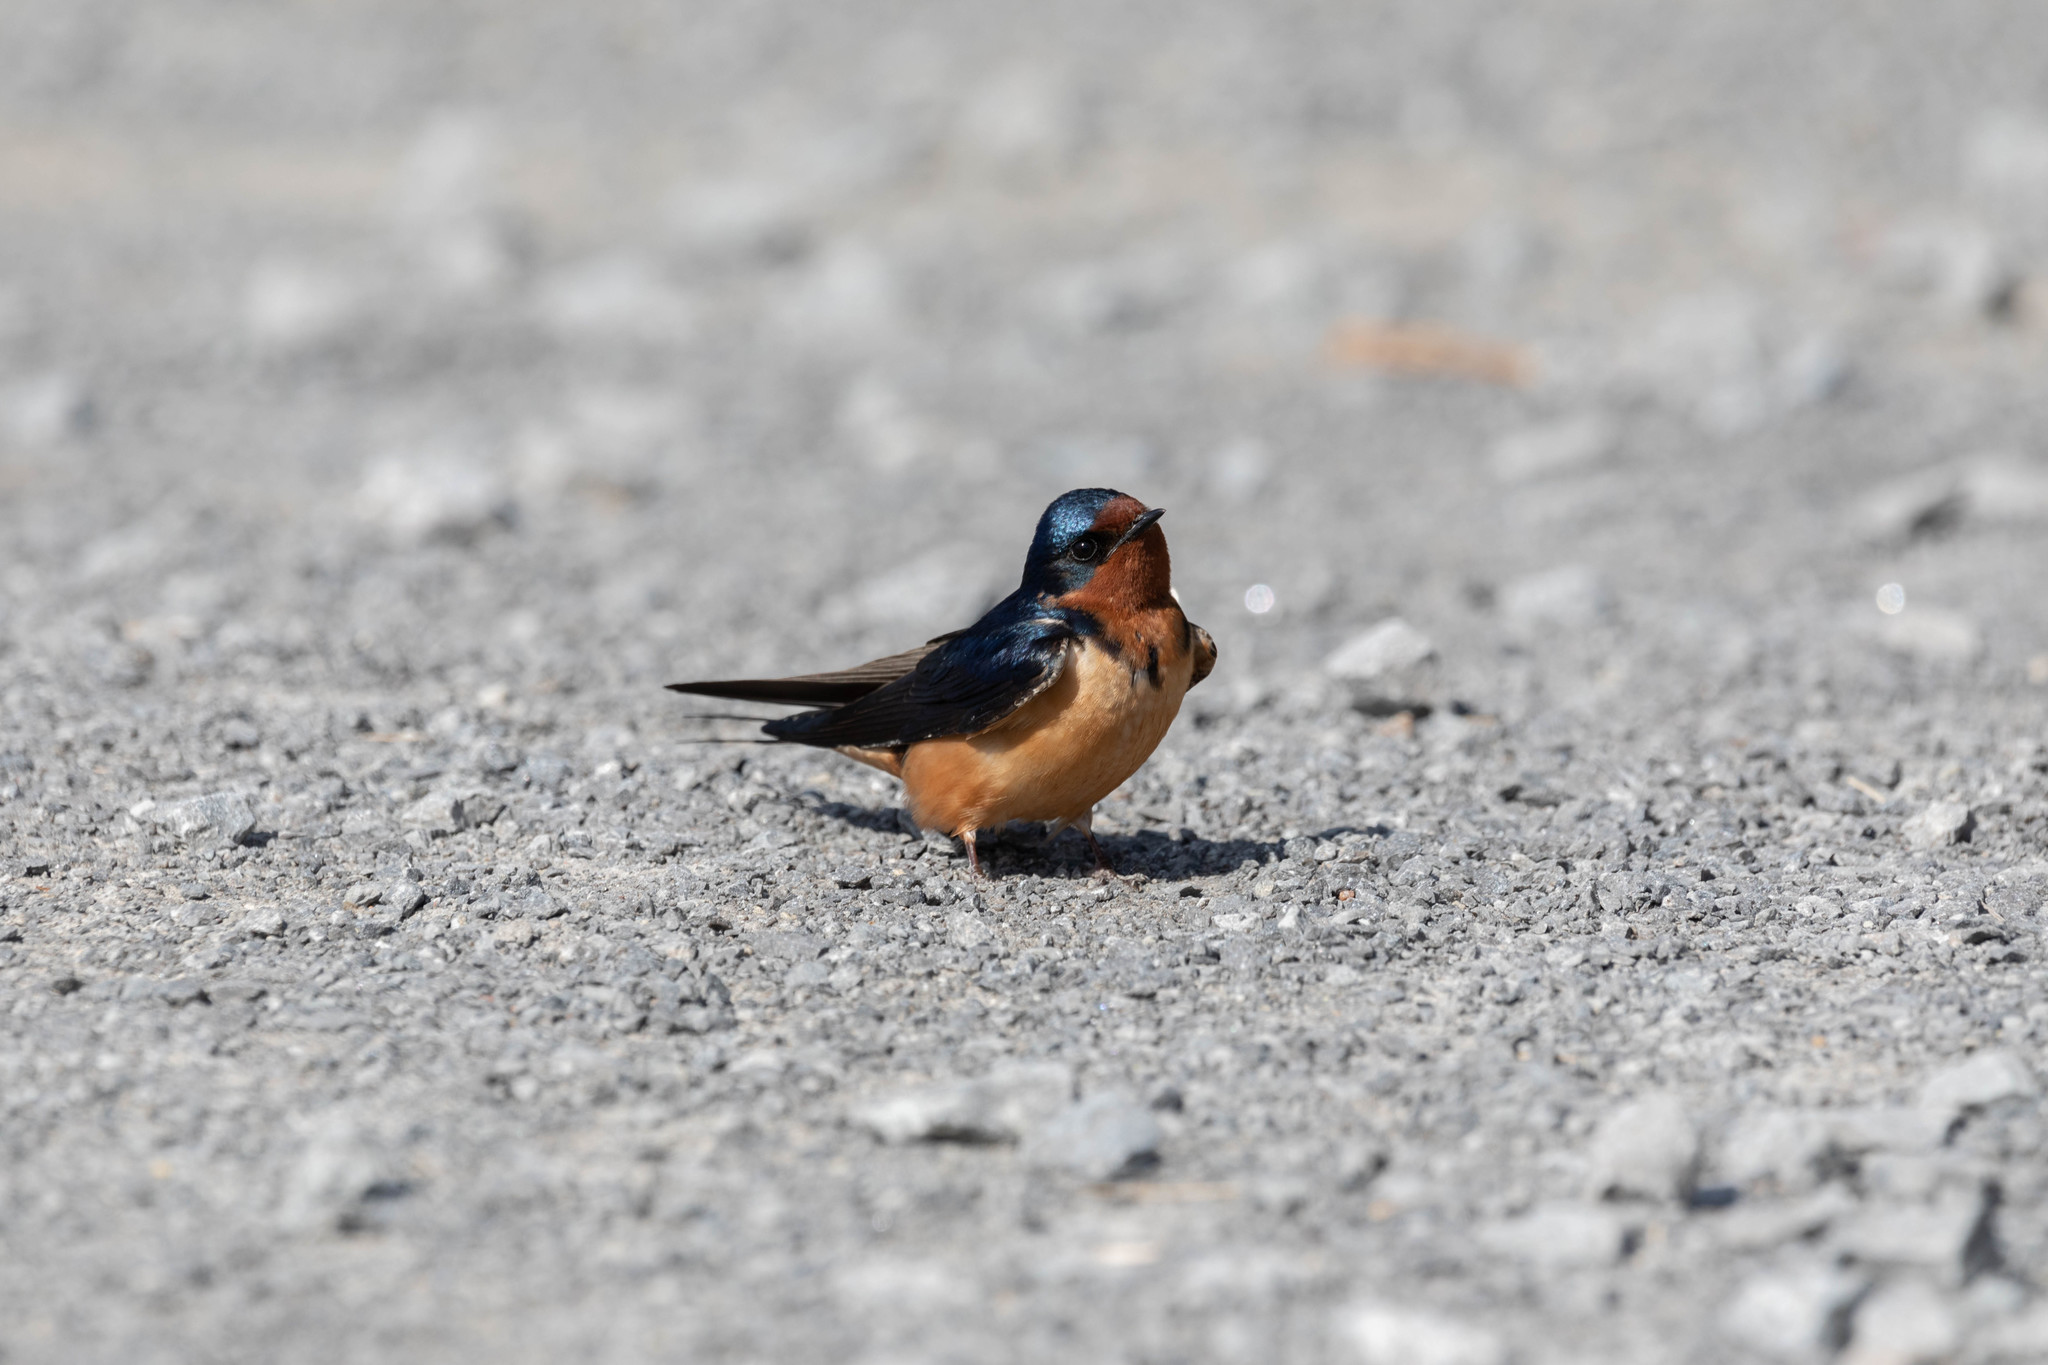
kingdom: Animalia
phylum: Chordata
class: Aves
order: Passeriformes
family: Hirundinidae
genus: Hirundo
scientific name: Hirundo rustica
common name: Barn swallow
